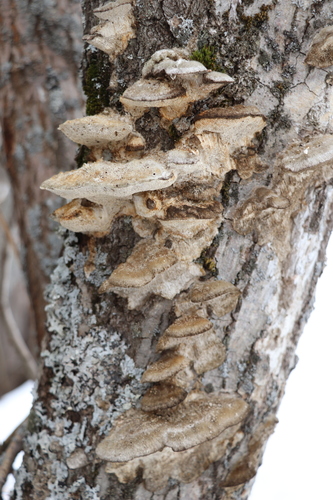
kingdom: Fungi
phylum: Basidiomycota
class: Agaricomycetes
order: Polyporales
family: Polyporaceae
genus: Trametes
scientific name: Trametes trogii
